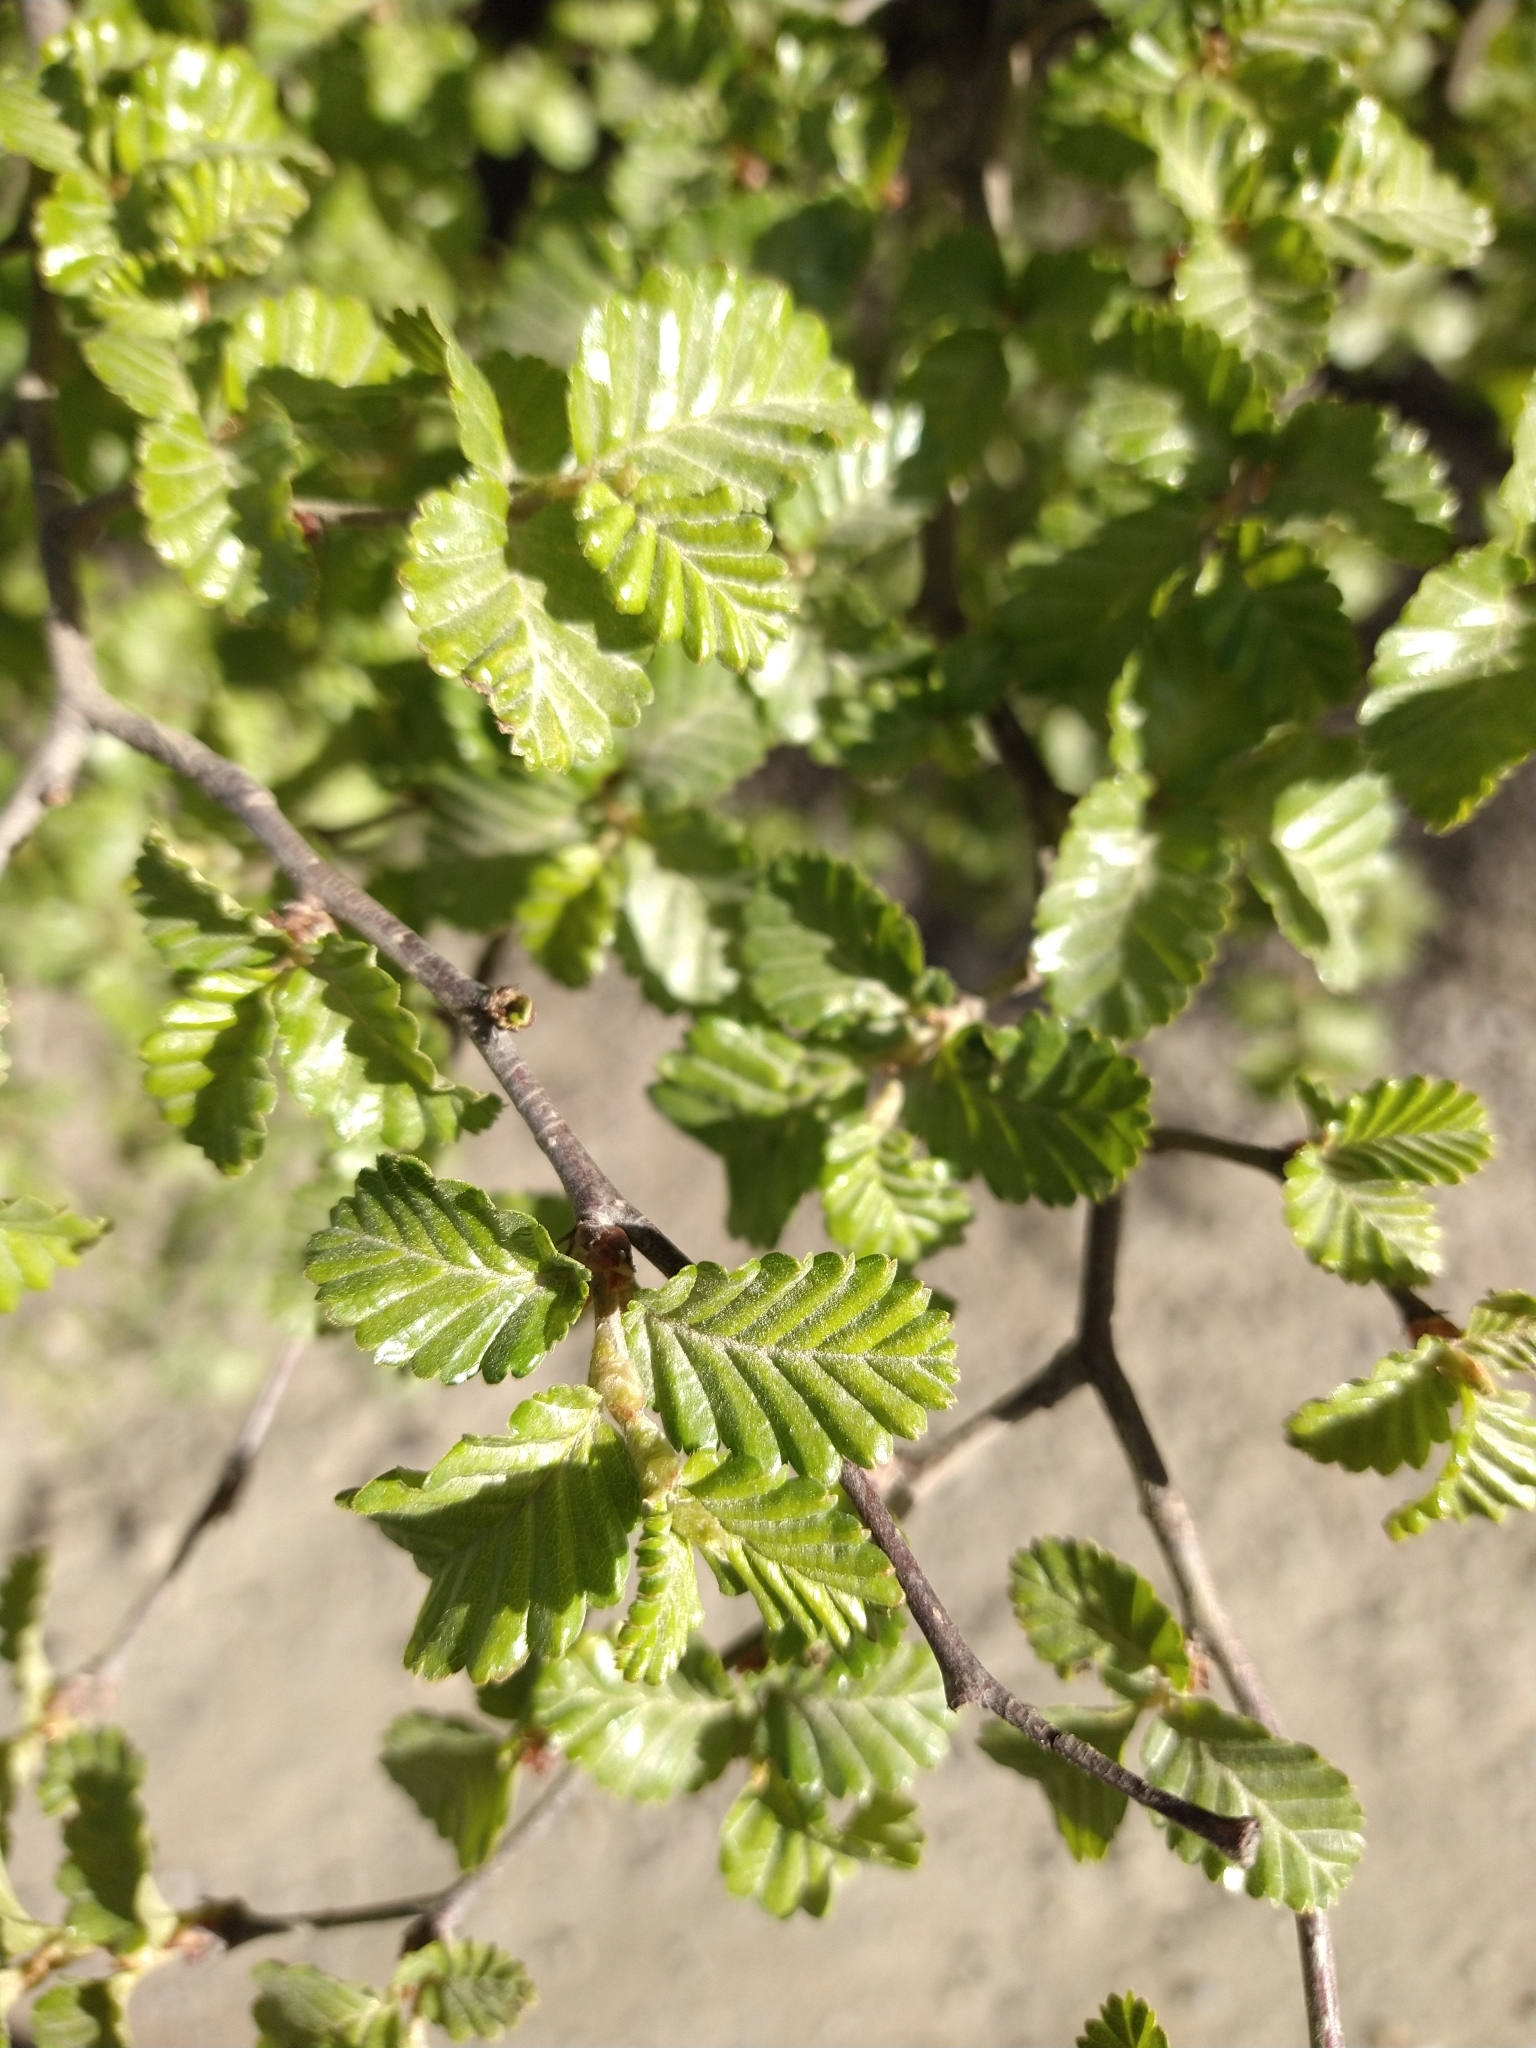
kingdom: Plantae
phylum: Tracheophyta
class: Magnoliopsida
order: Fagales
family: Nothofagaceae
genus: Nothofagus
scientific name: Nothofagus pumilio
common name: Lenga beech
